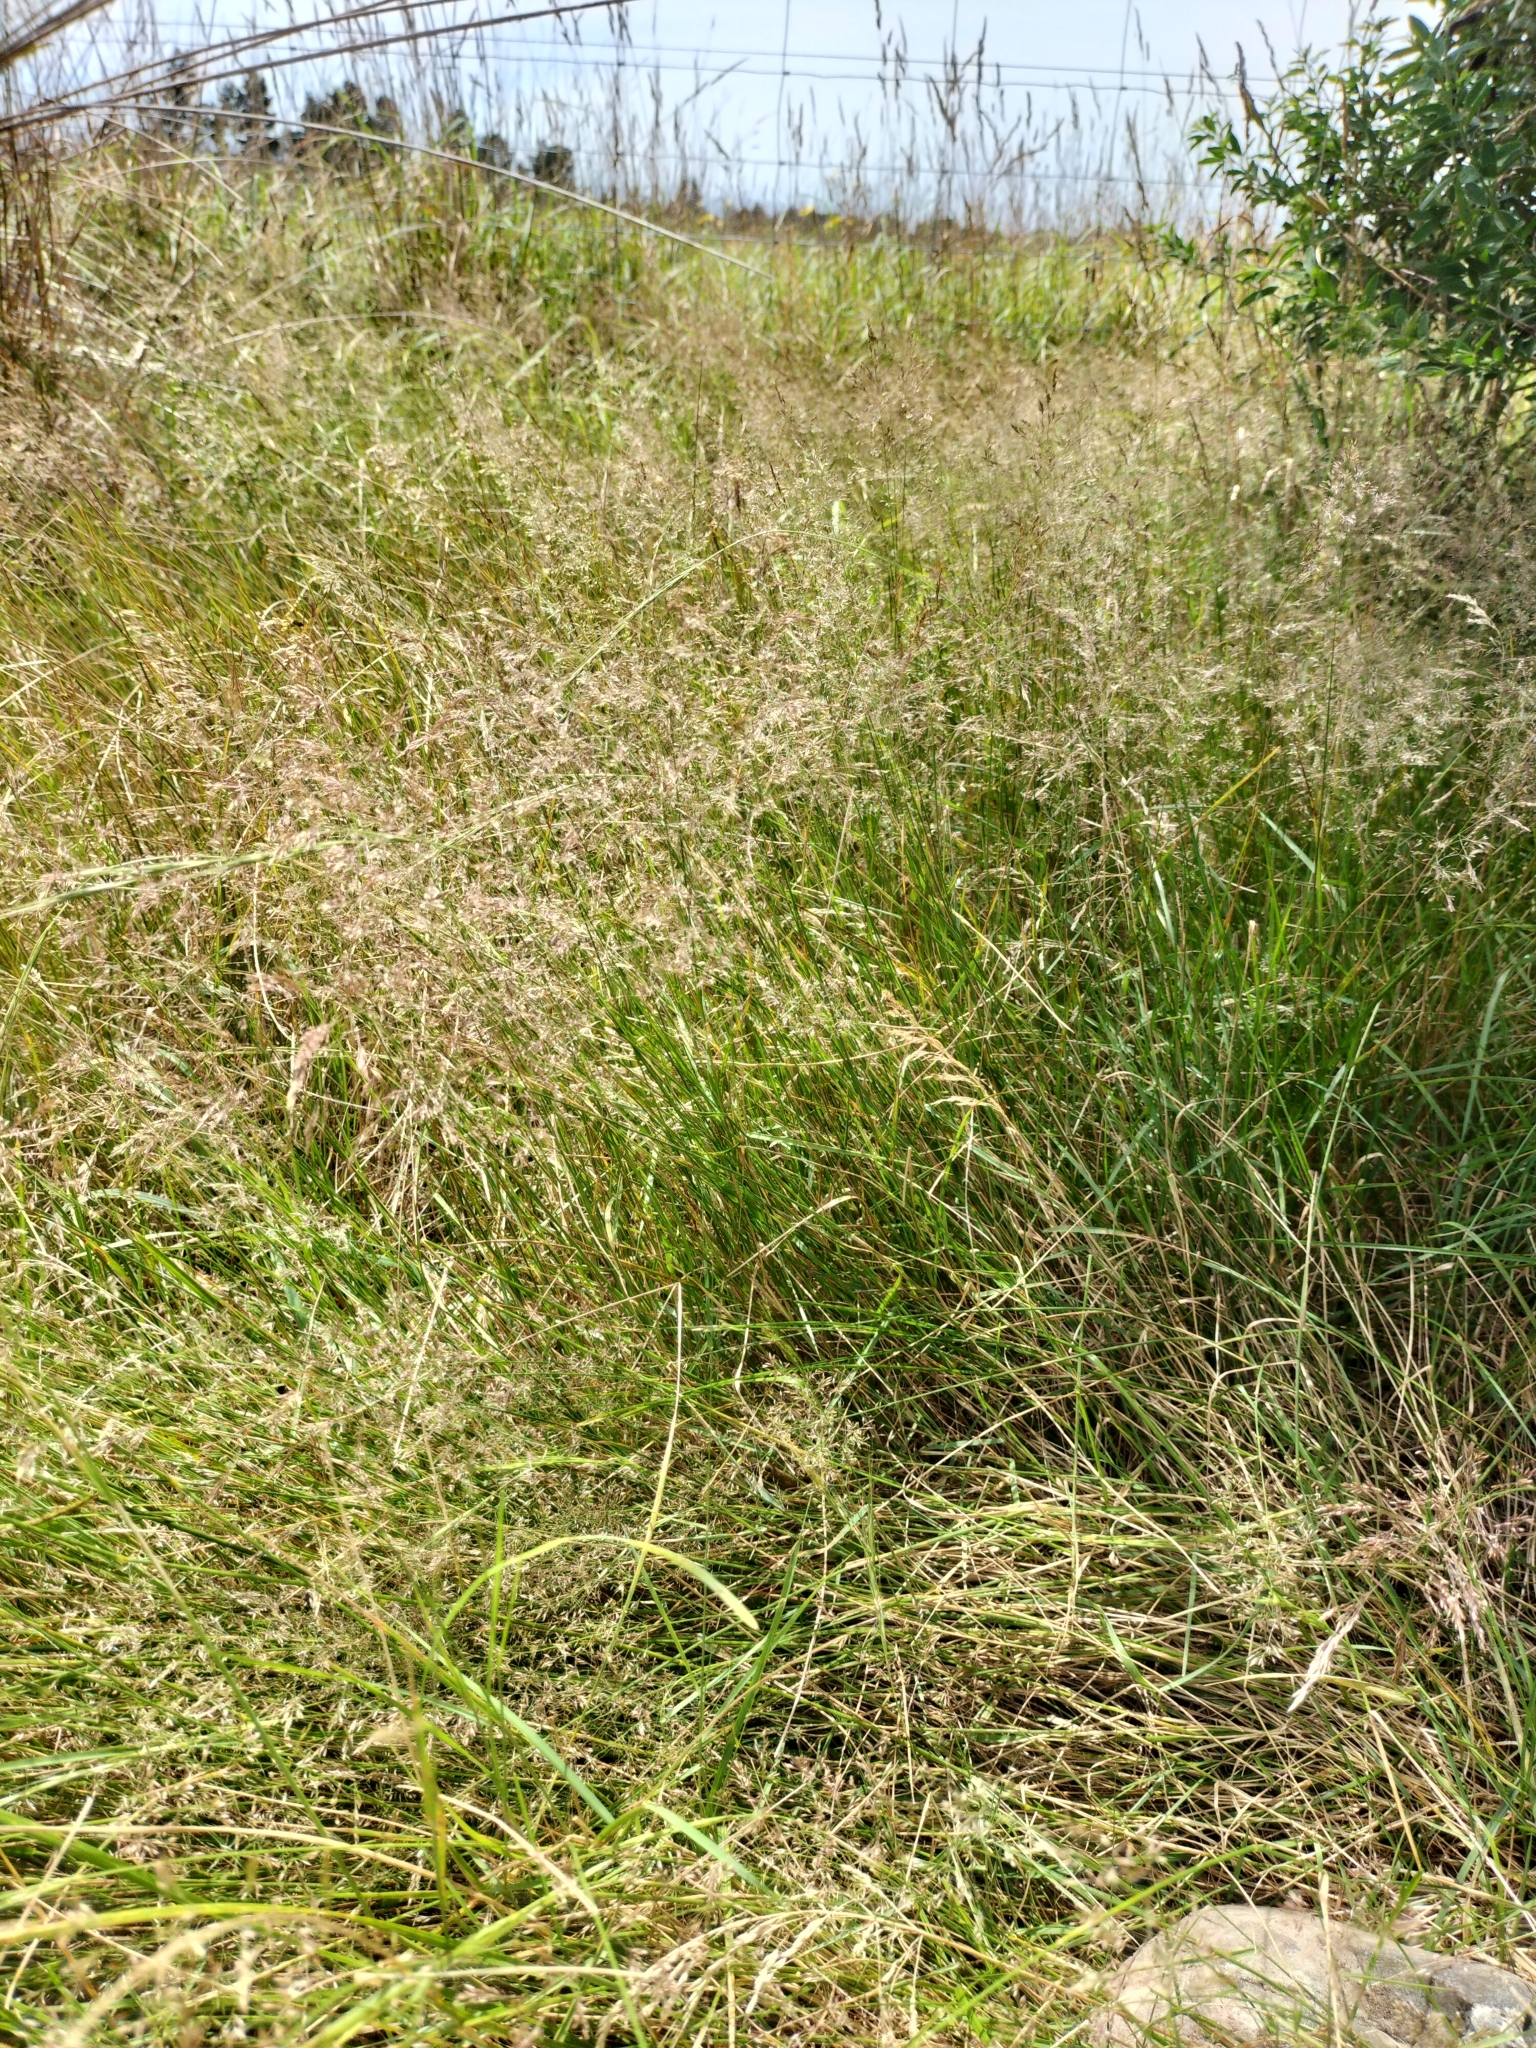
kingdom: Plantae
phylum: Tracheophyta
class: Liliopsida
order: Poales
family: Poaceae
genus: Agrostis
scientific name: Agrostis capillaris
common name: Colonial bentgrass
